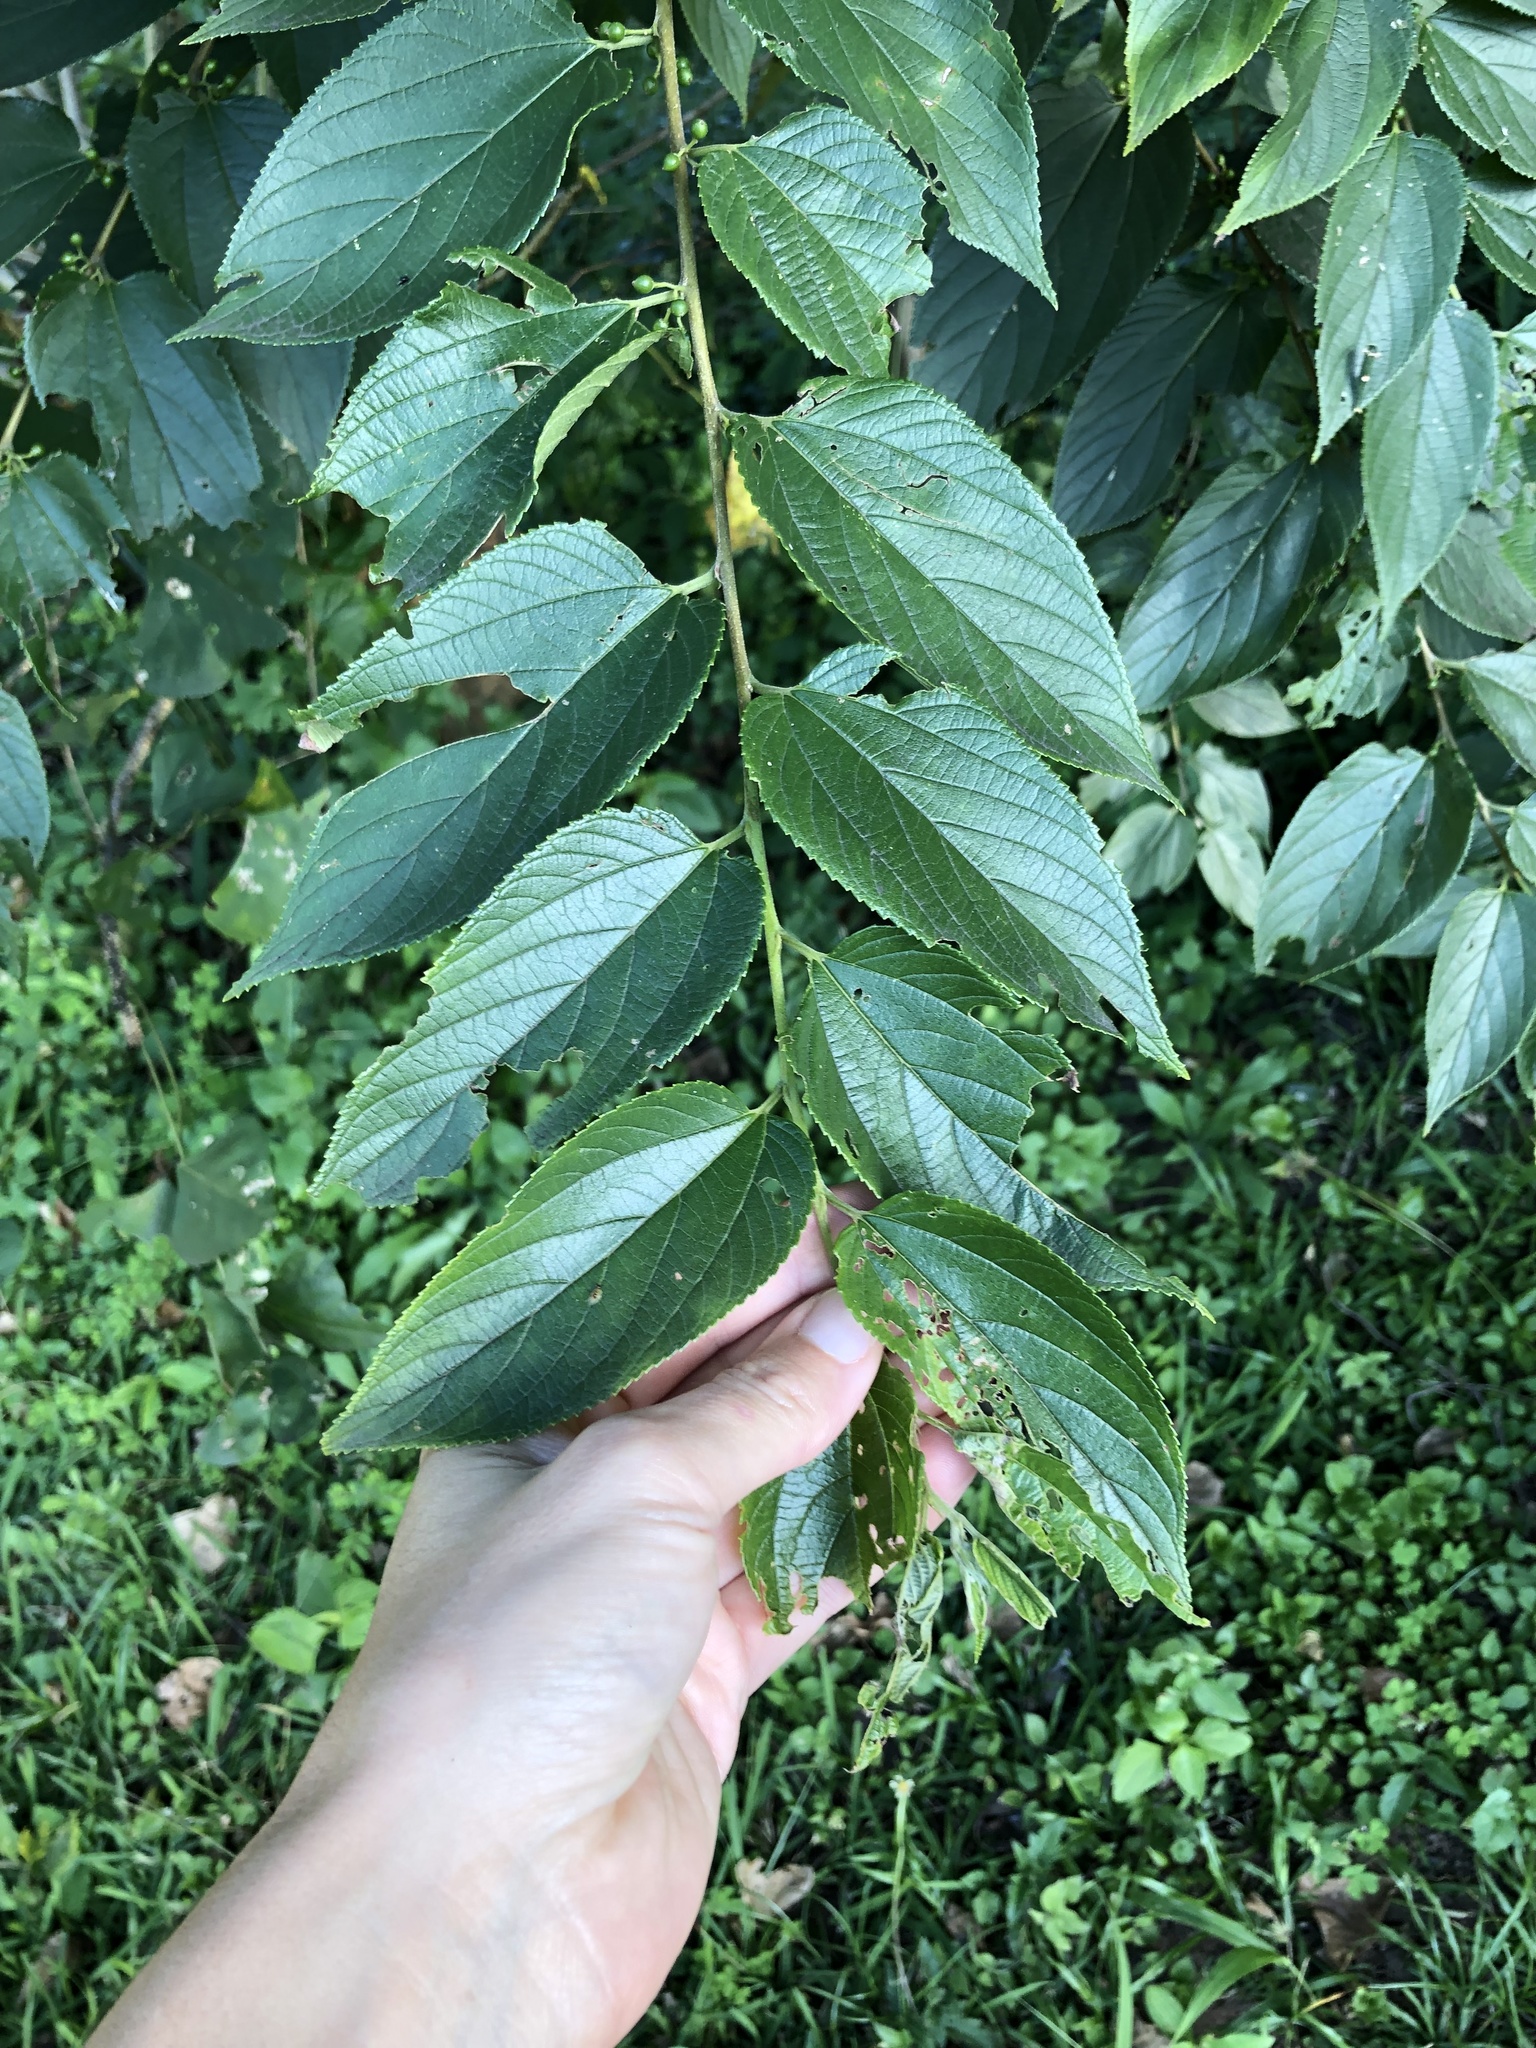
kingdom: Plantae
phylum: Tracheophyta
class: Magnoliopsida
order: Rosales
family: Cannabaceae
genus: Trema
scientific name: Trema orientale
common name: Indian charcoal tree
